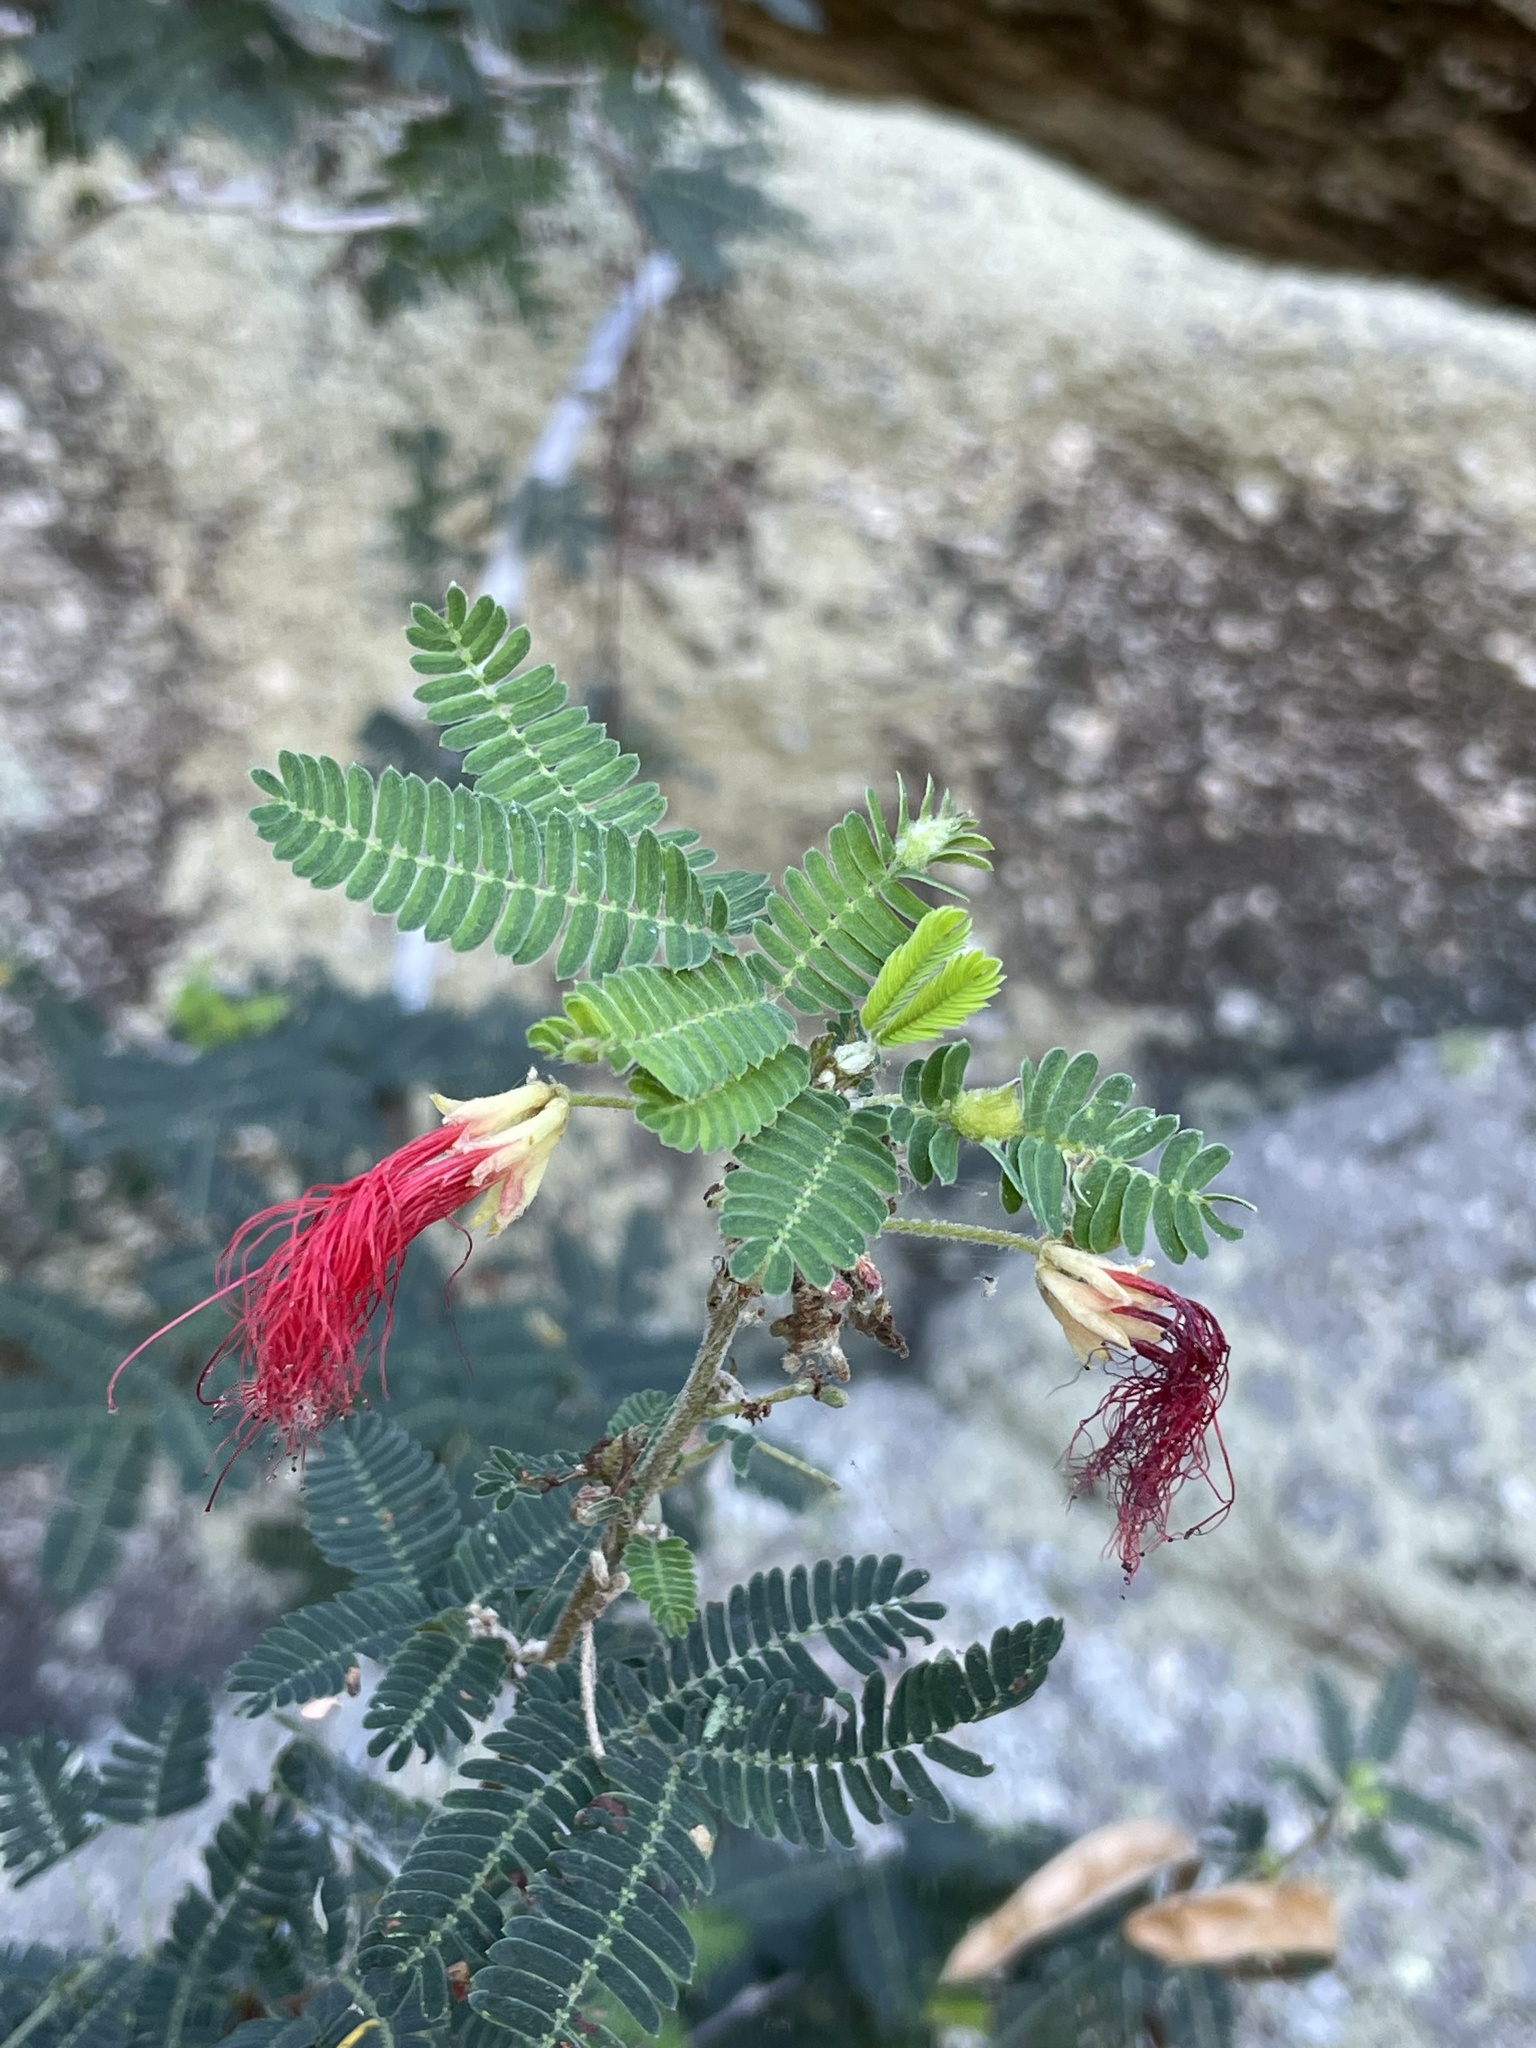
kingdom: Plantae
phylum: Tracheophyta
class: Magnoliopsida
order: Fabales
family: Fabaceae
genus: Calliandra
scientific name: Calliandra californica
